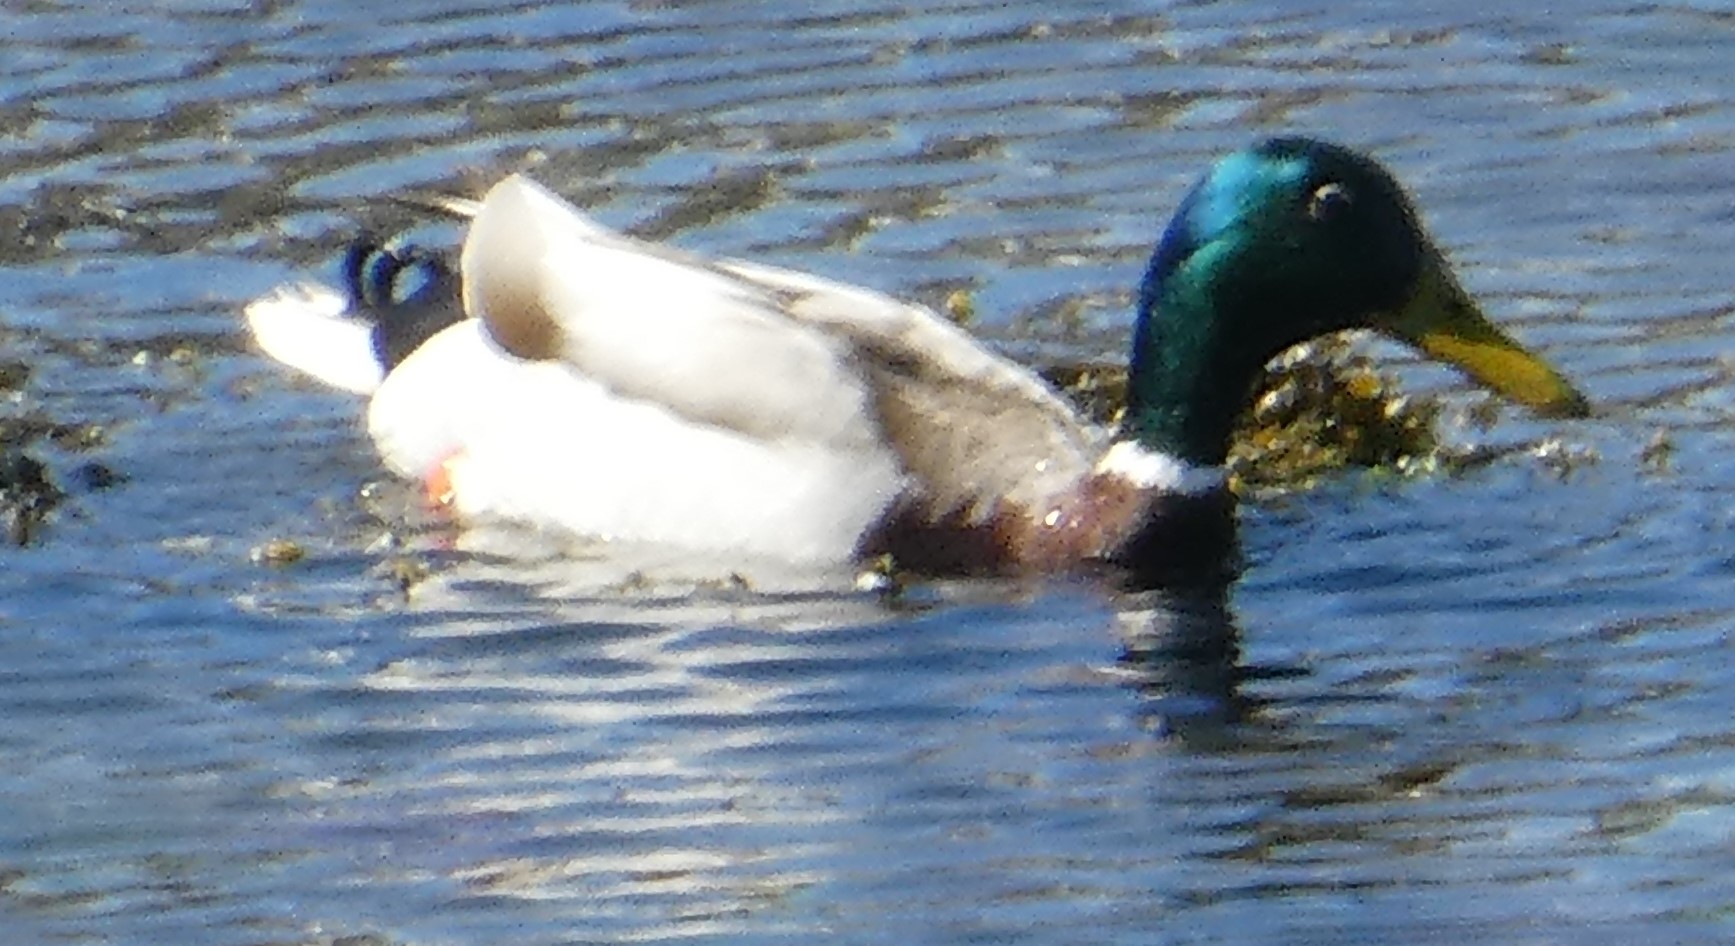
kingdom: Animalia
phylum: Chordata
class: Aves
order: Anseriformes
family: Anatidae
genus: Anas
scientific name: Anas platyrhynchos
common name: Mallard
